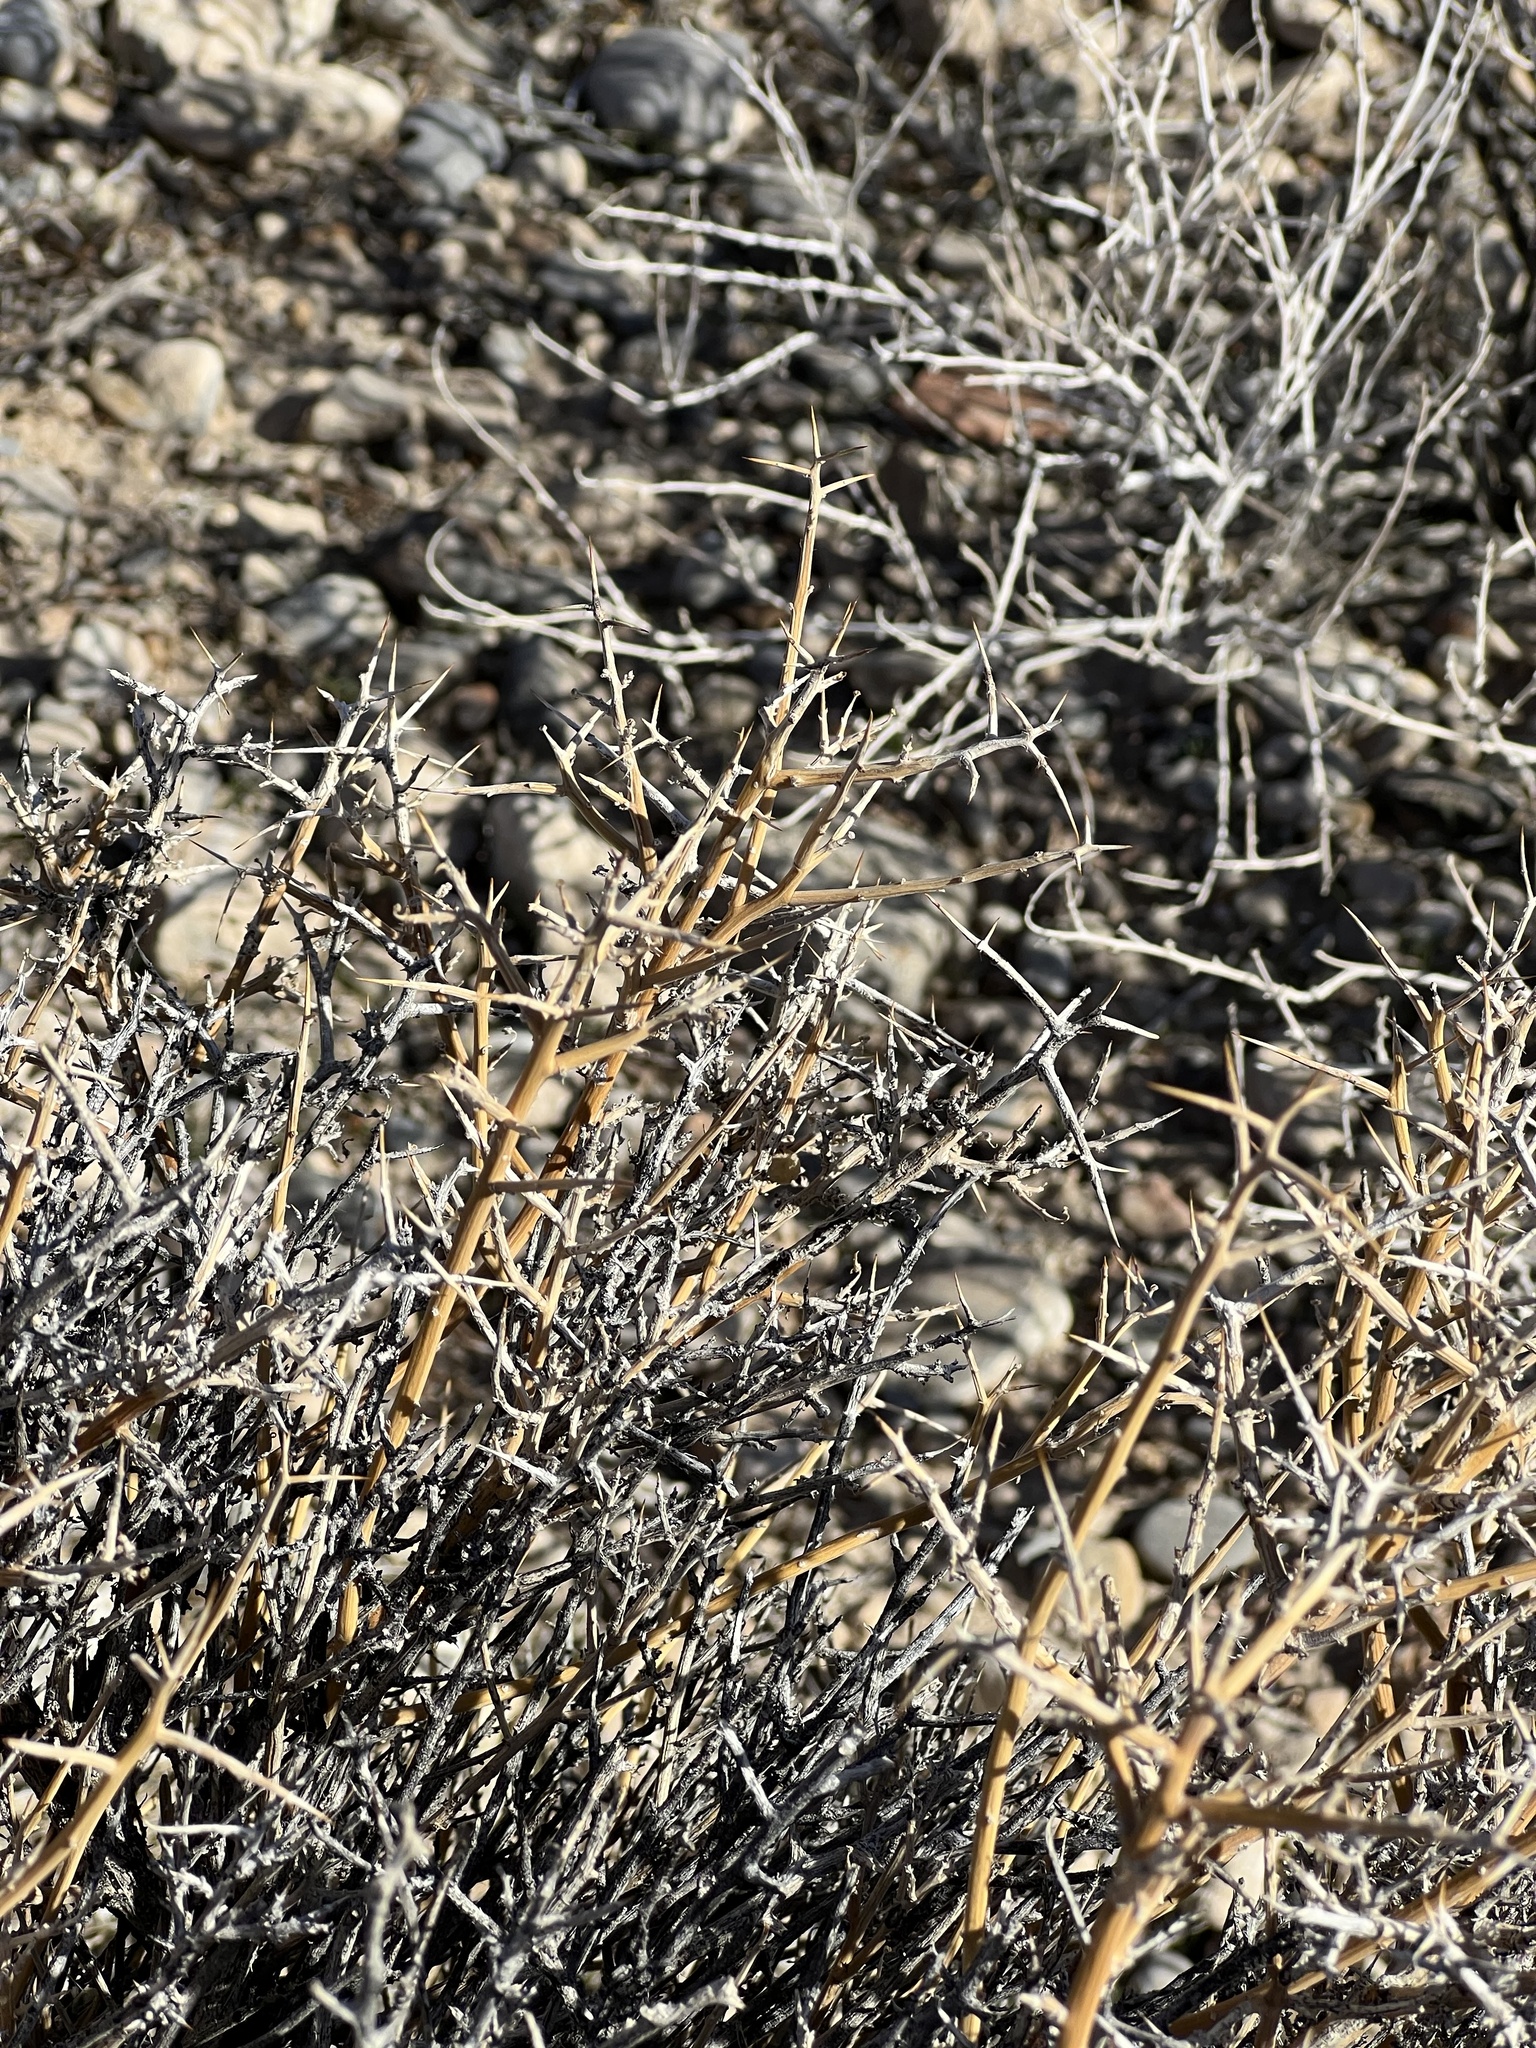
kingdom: Plantae
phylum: Tracheophyta
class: Magnoliopsida
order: Lamiales
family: Oleaceae
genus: Menodora
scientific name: Menodora spinescens
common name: Spiny menodora
